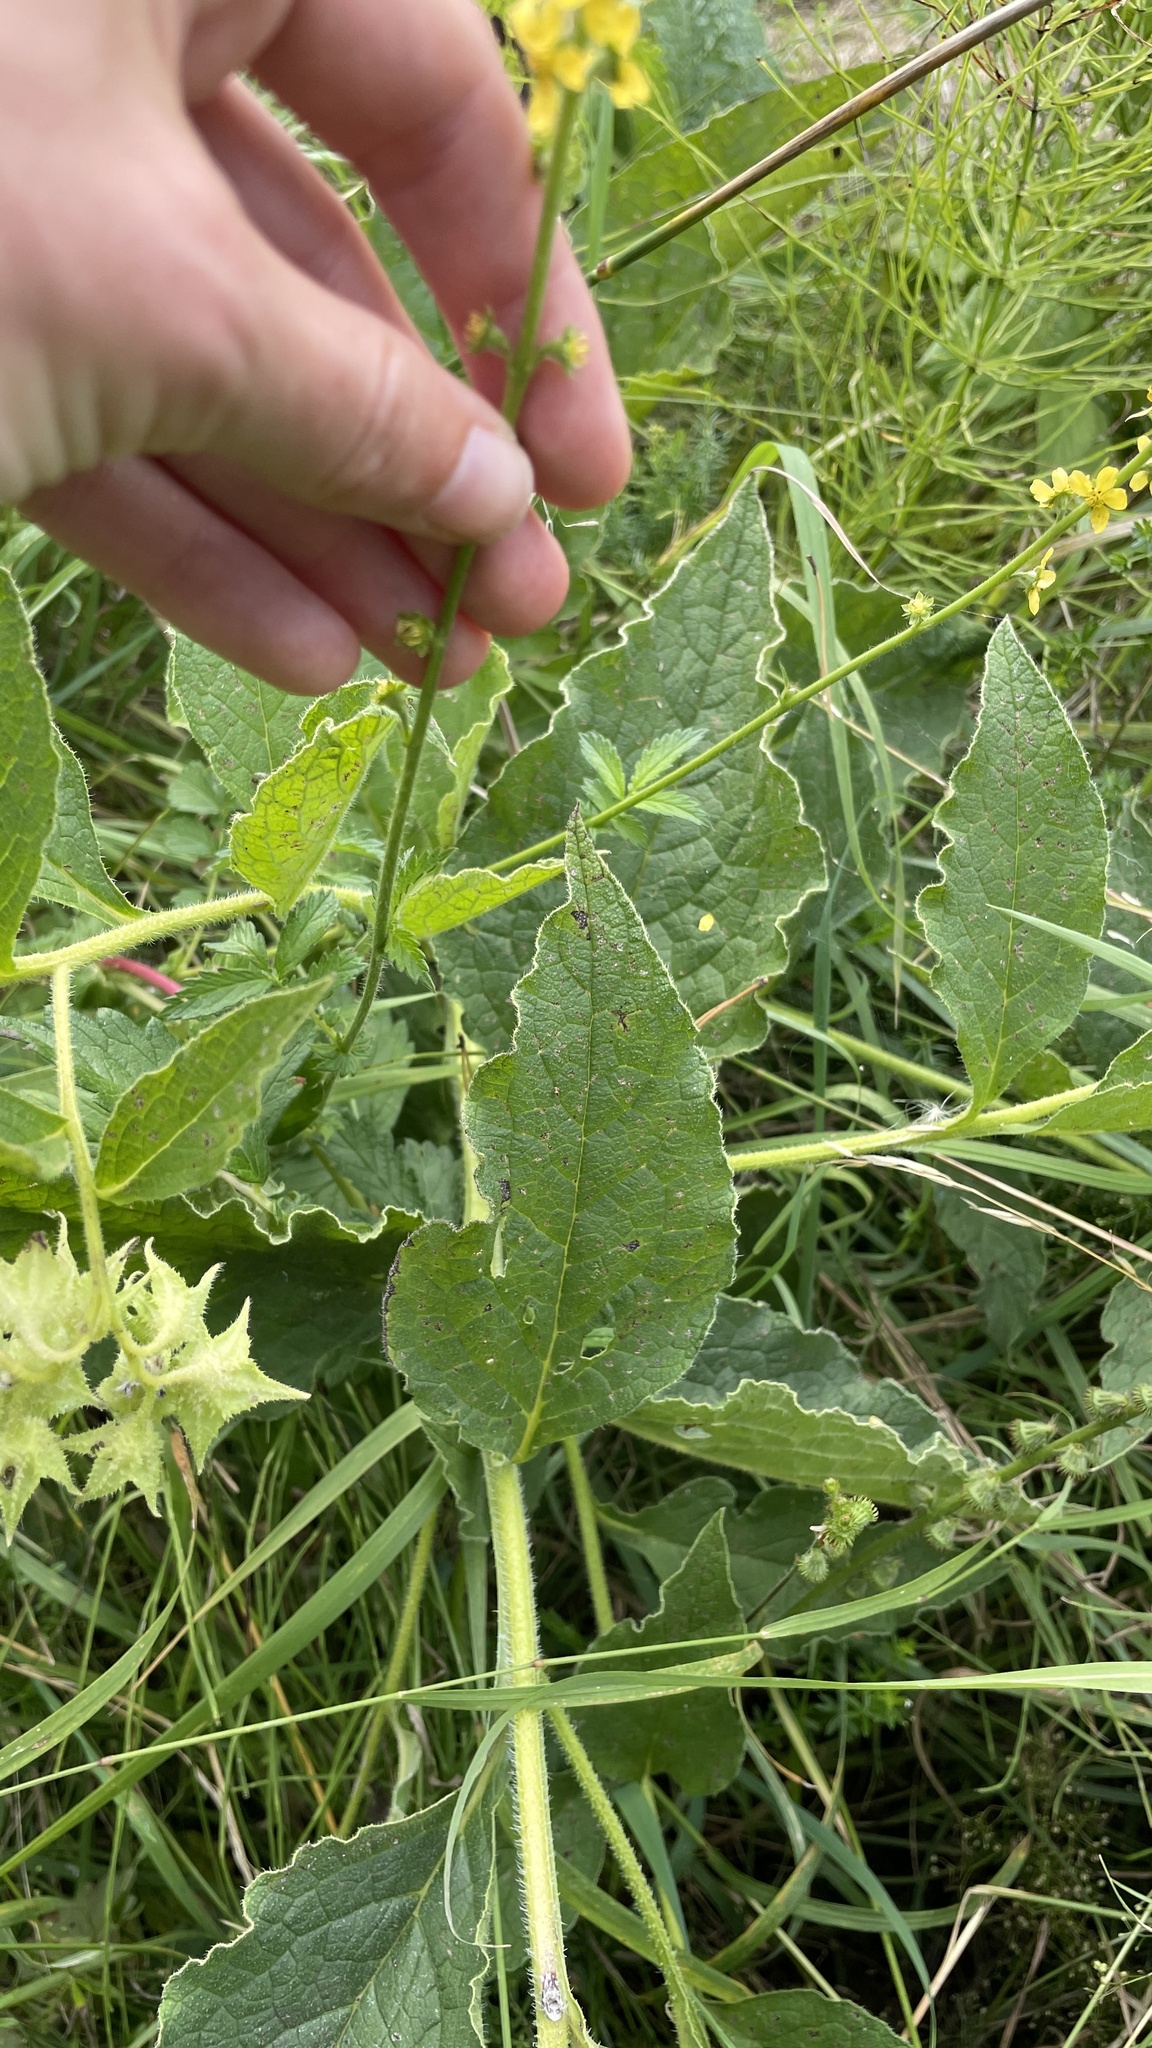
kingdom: Plantae
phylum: Tracheophyta
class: Magnoliopsida
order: Rosales
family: Rosaceae
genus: Agrimonia
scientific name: Agrimonia eupatoria
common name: Agrimony
